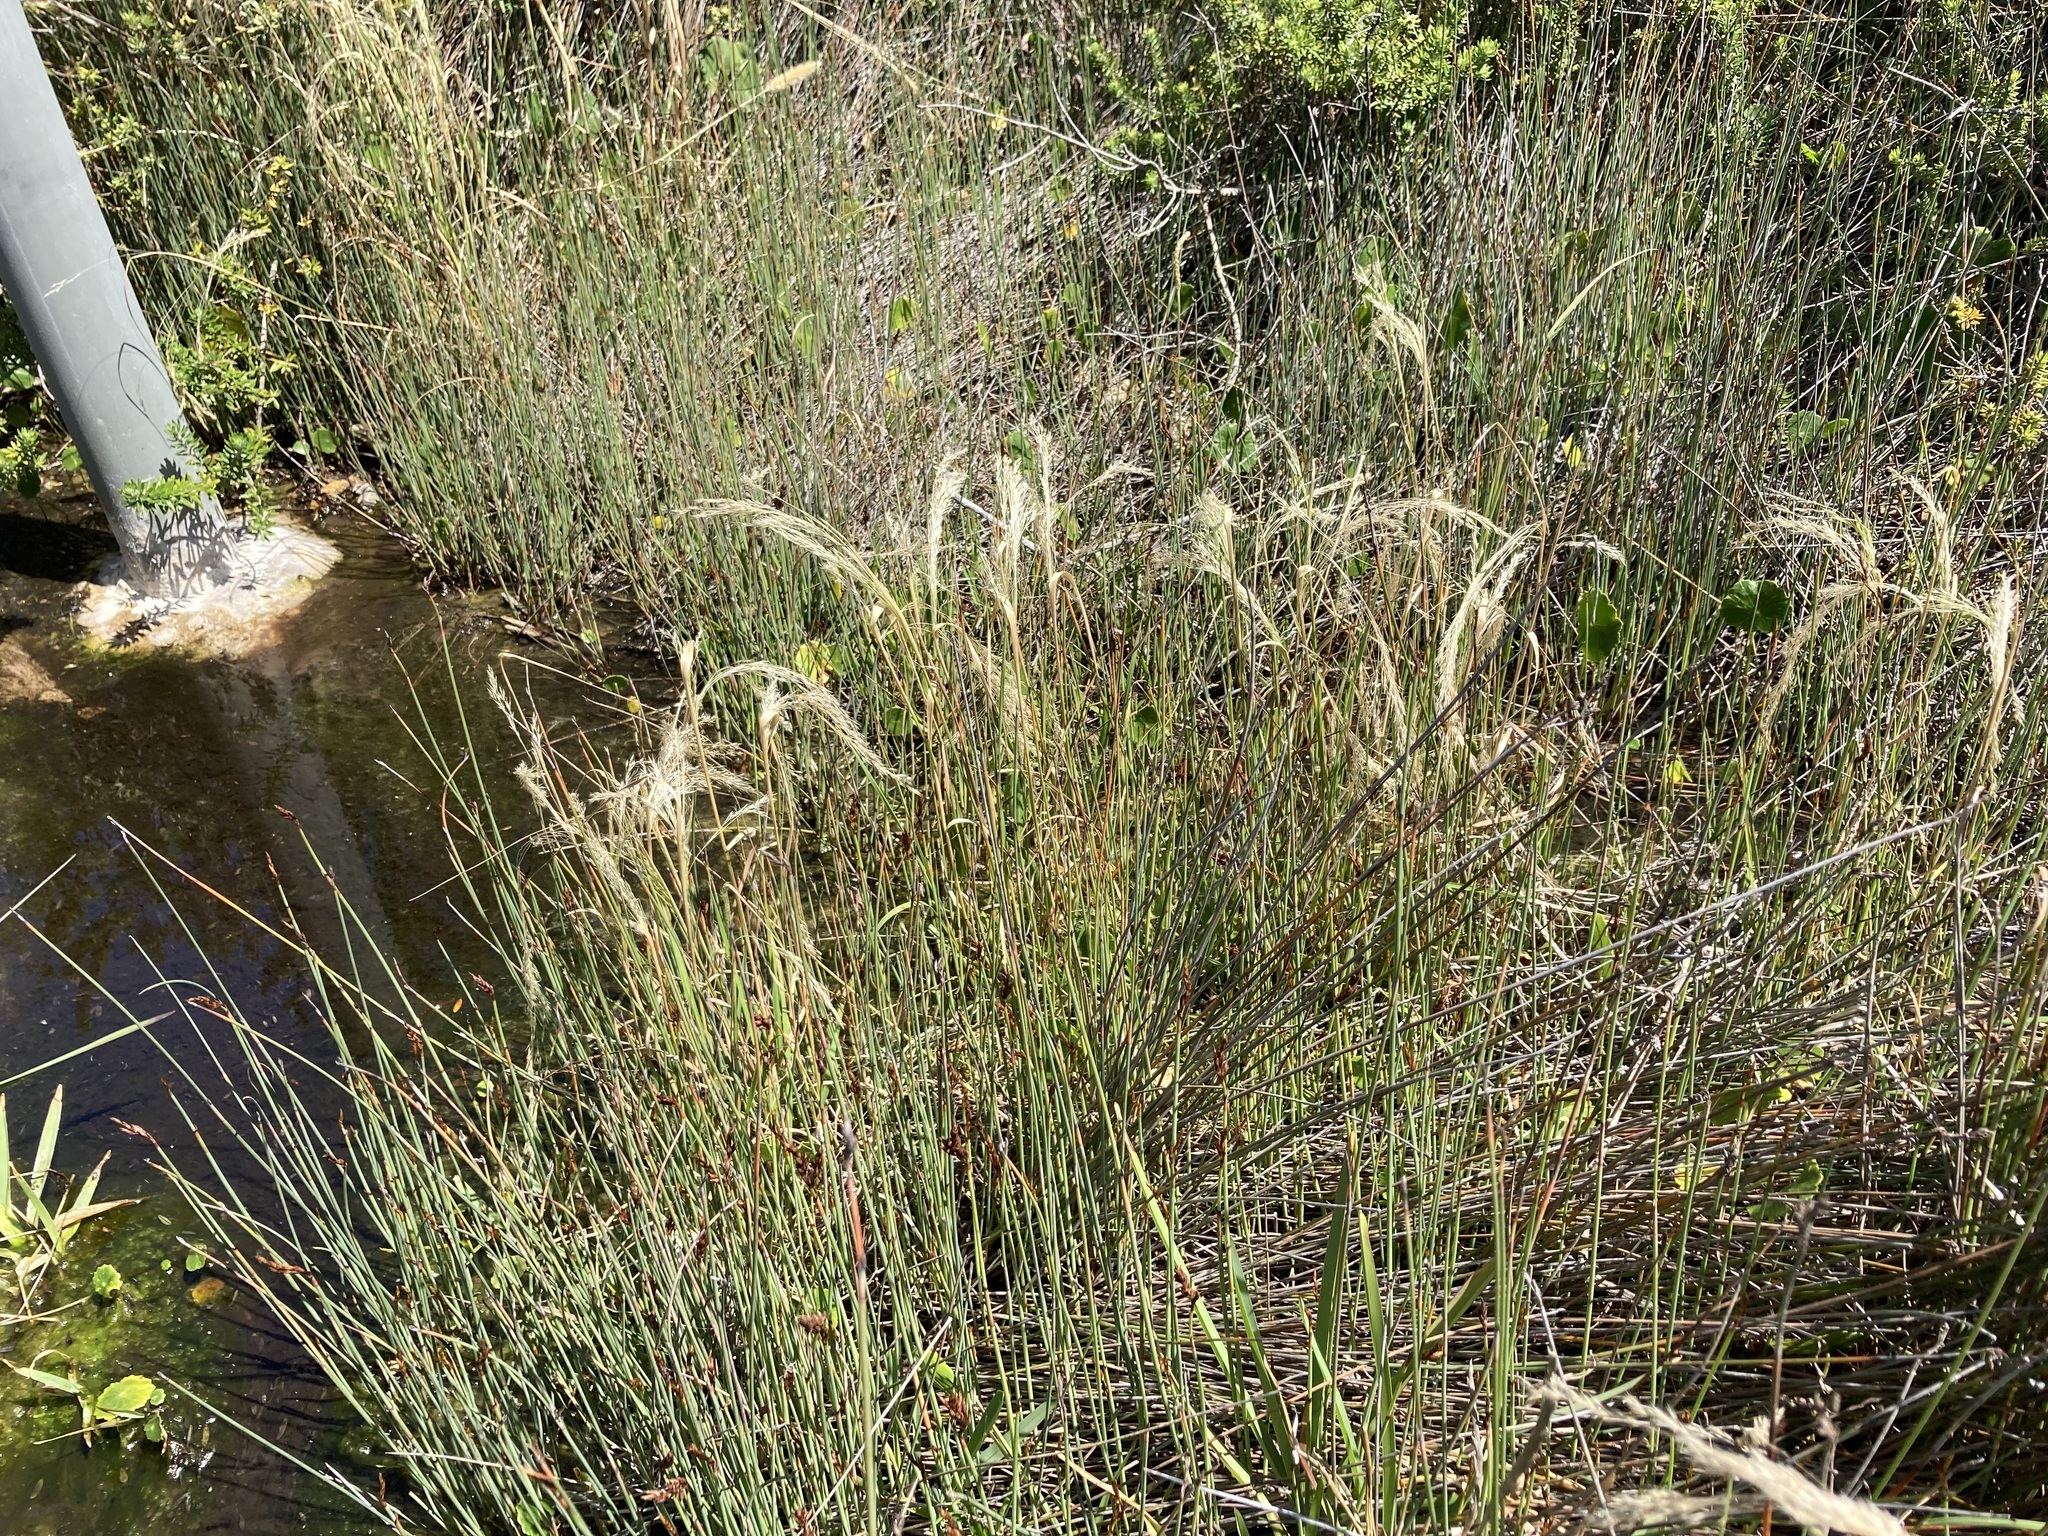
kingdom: Plantae
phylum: Tracheophyta
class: Liliopsida
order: Poales
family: Poaceae
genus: Lachnagrostis
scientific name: Lachnagrostis filiformis
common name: Bentgrass
